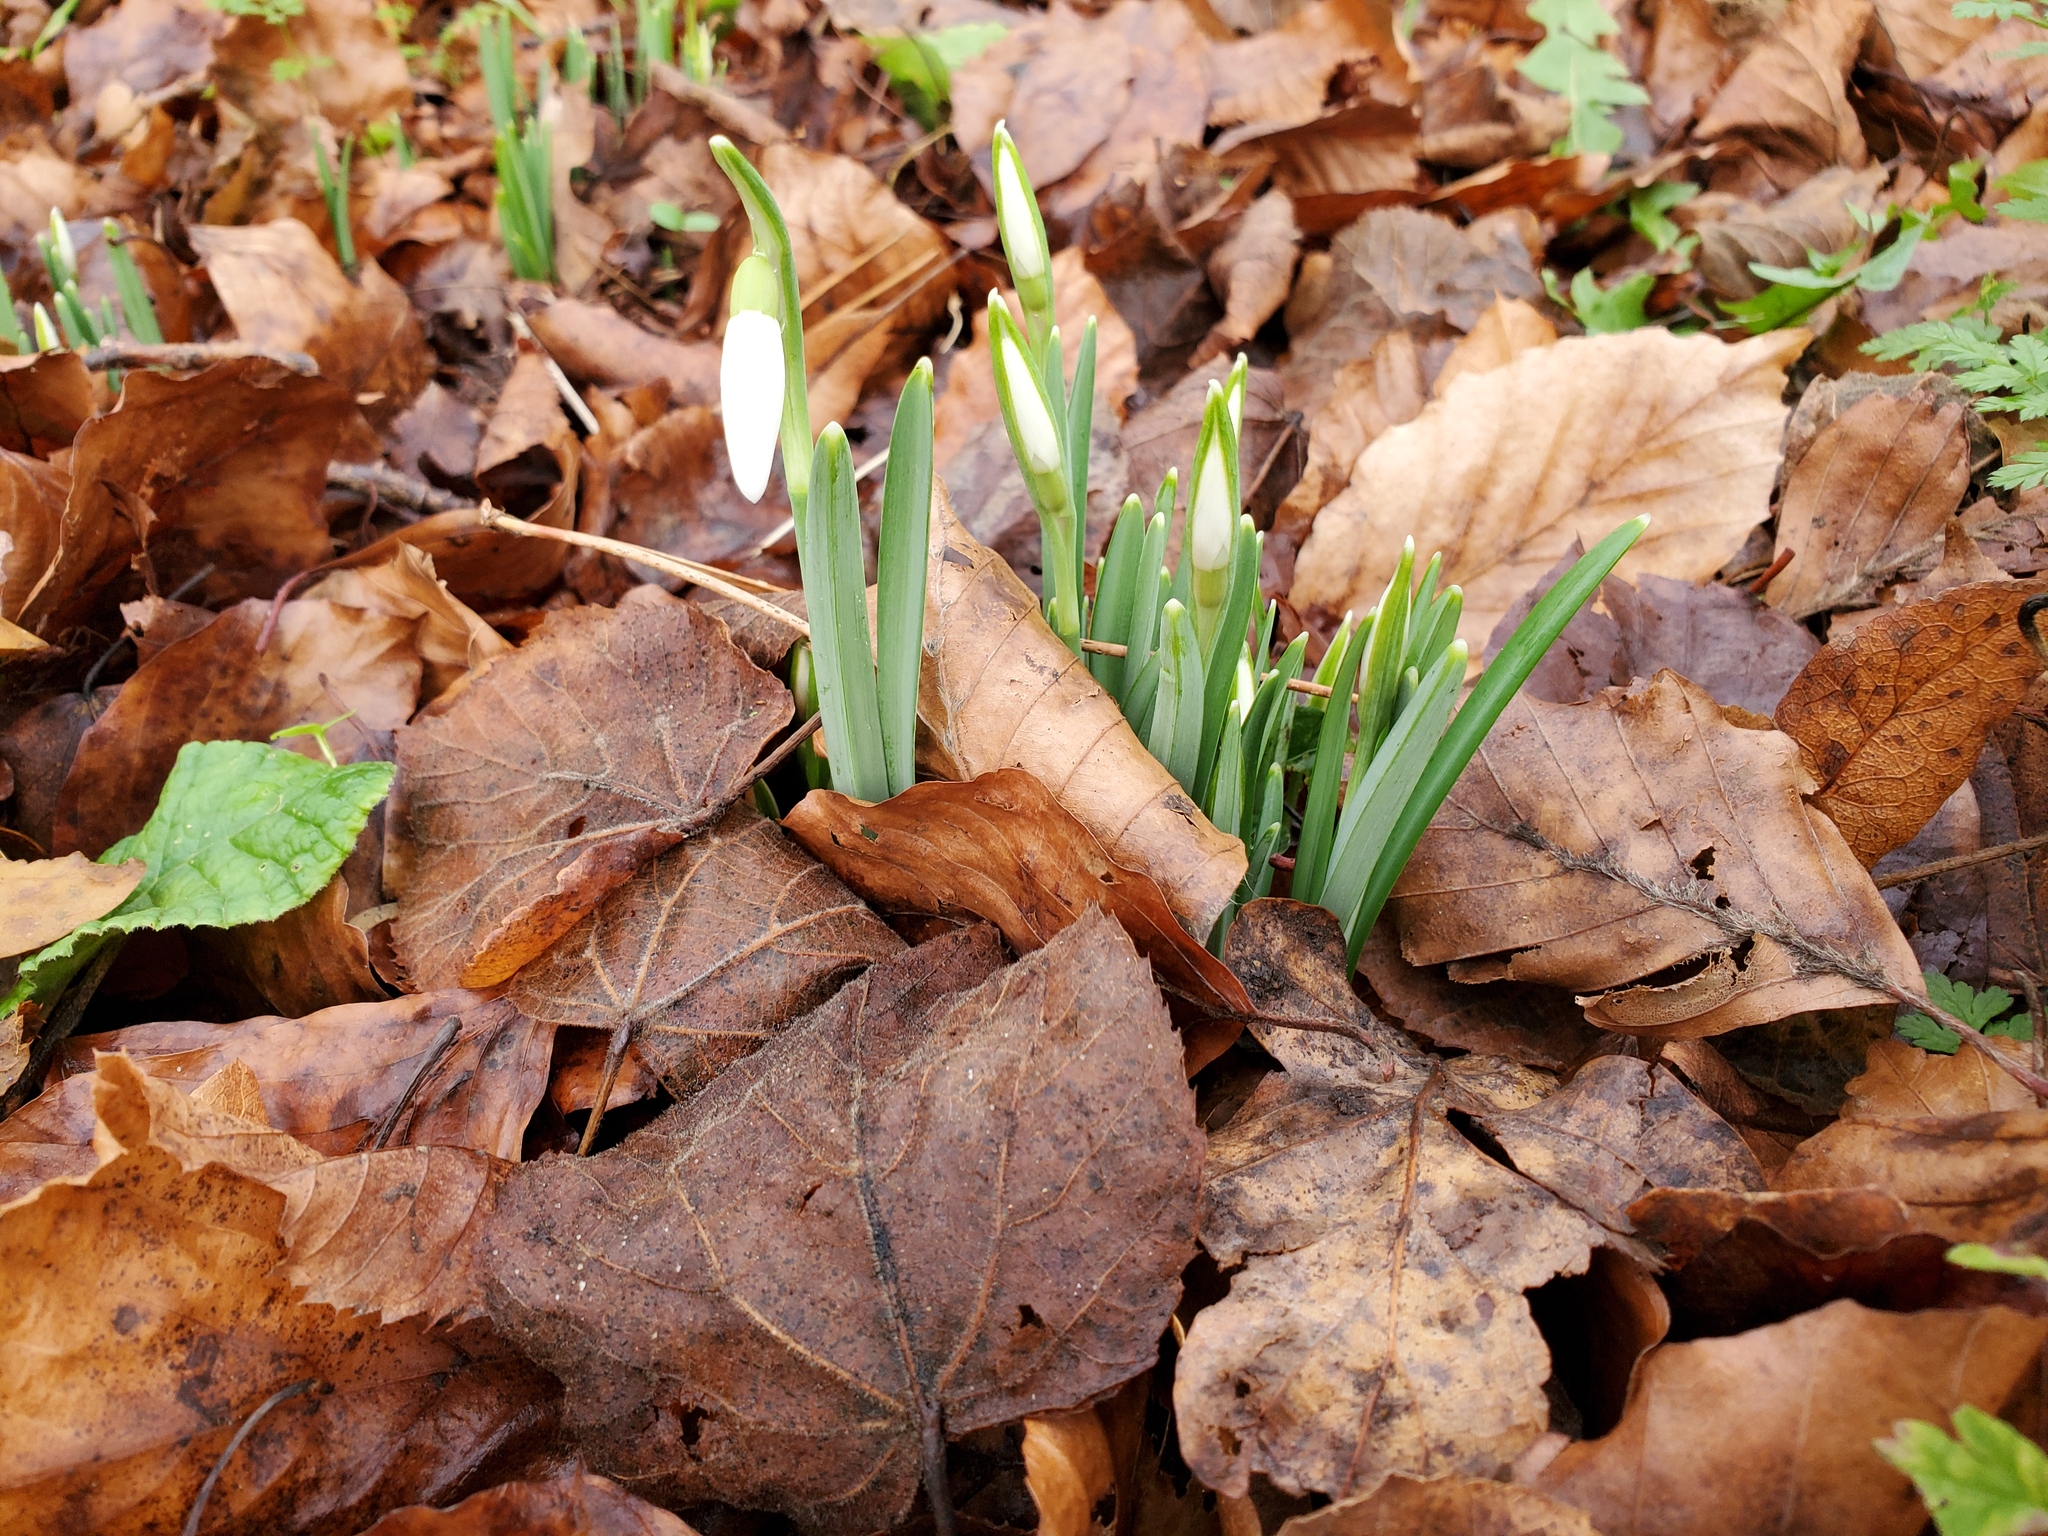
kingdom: Plantae
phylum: Tracheophyta
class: Liliopsida
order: Asparagales
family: Amaryllidaceae
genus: Galanthus
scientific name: Galanthus nivalis
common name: Snowdrop
